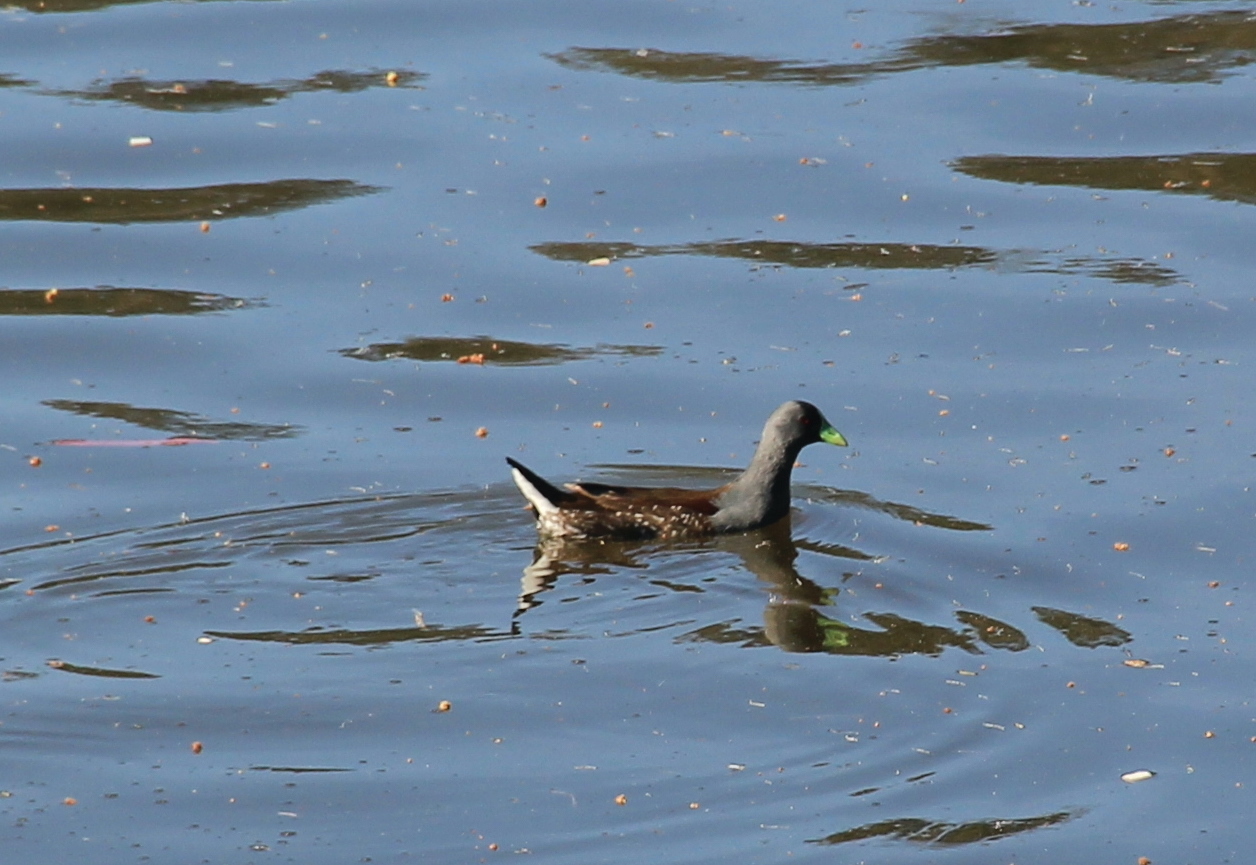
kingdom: Animalia
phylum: Chordata
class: Aves
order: Gruiformes
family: Rallidae
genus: Gallinula
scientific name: Gallinula melanops
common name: Spot-flanked gallinule
